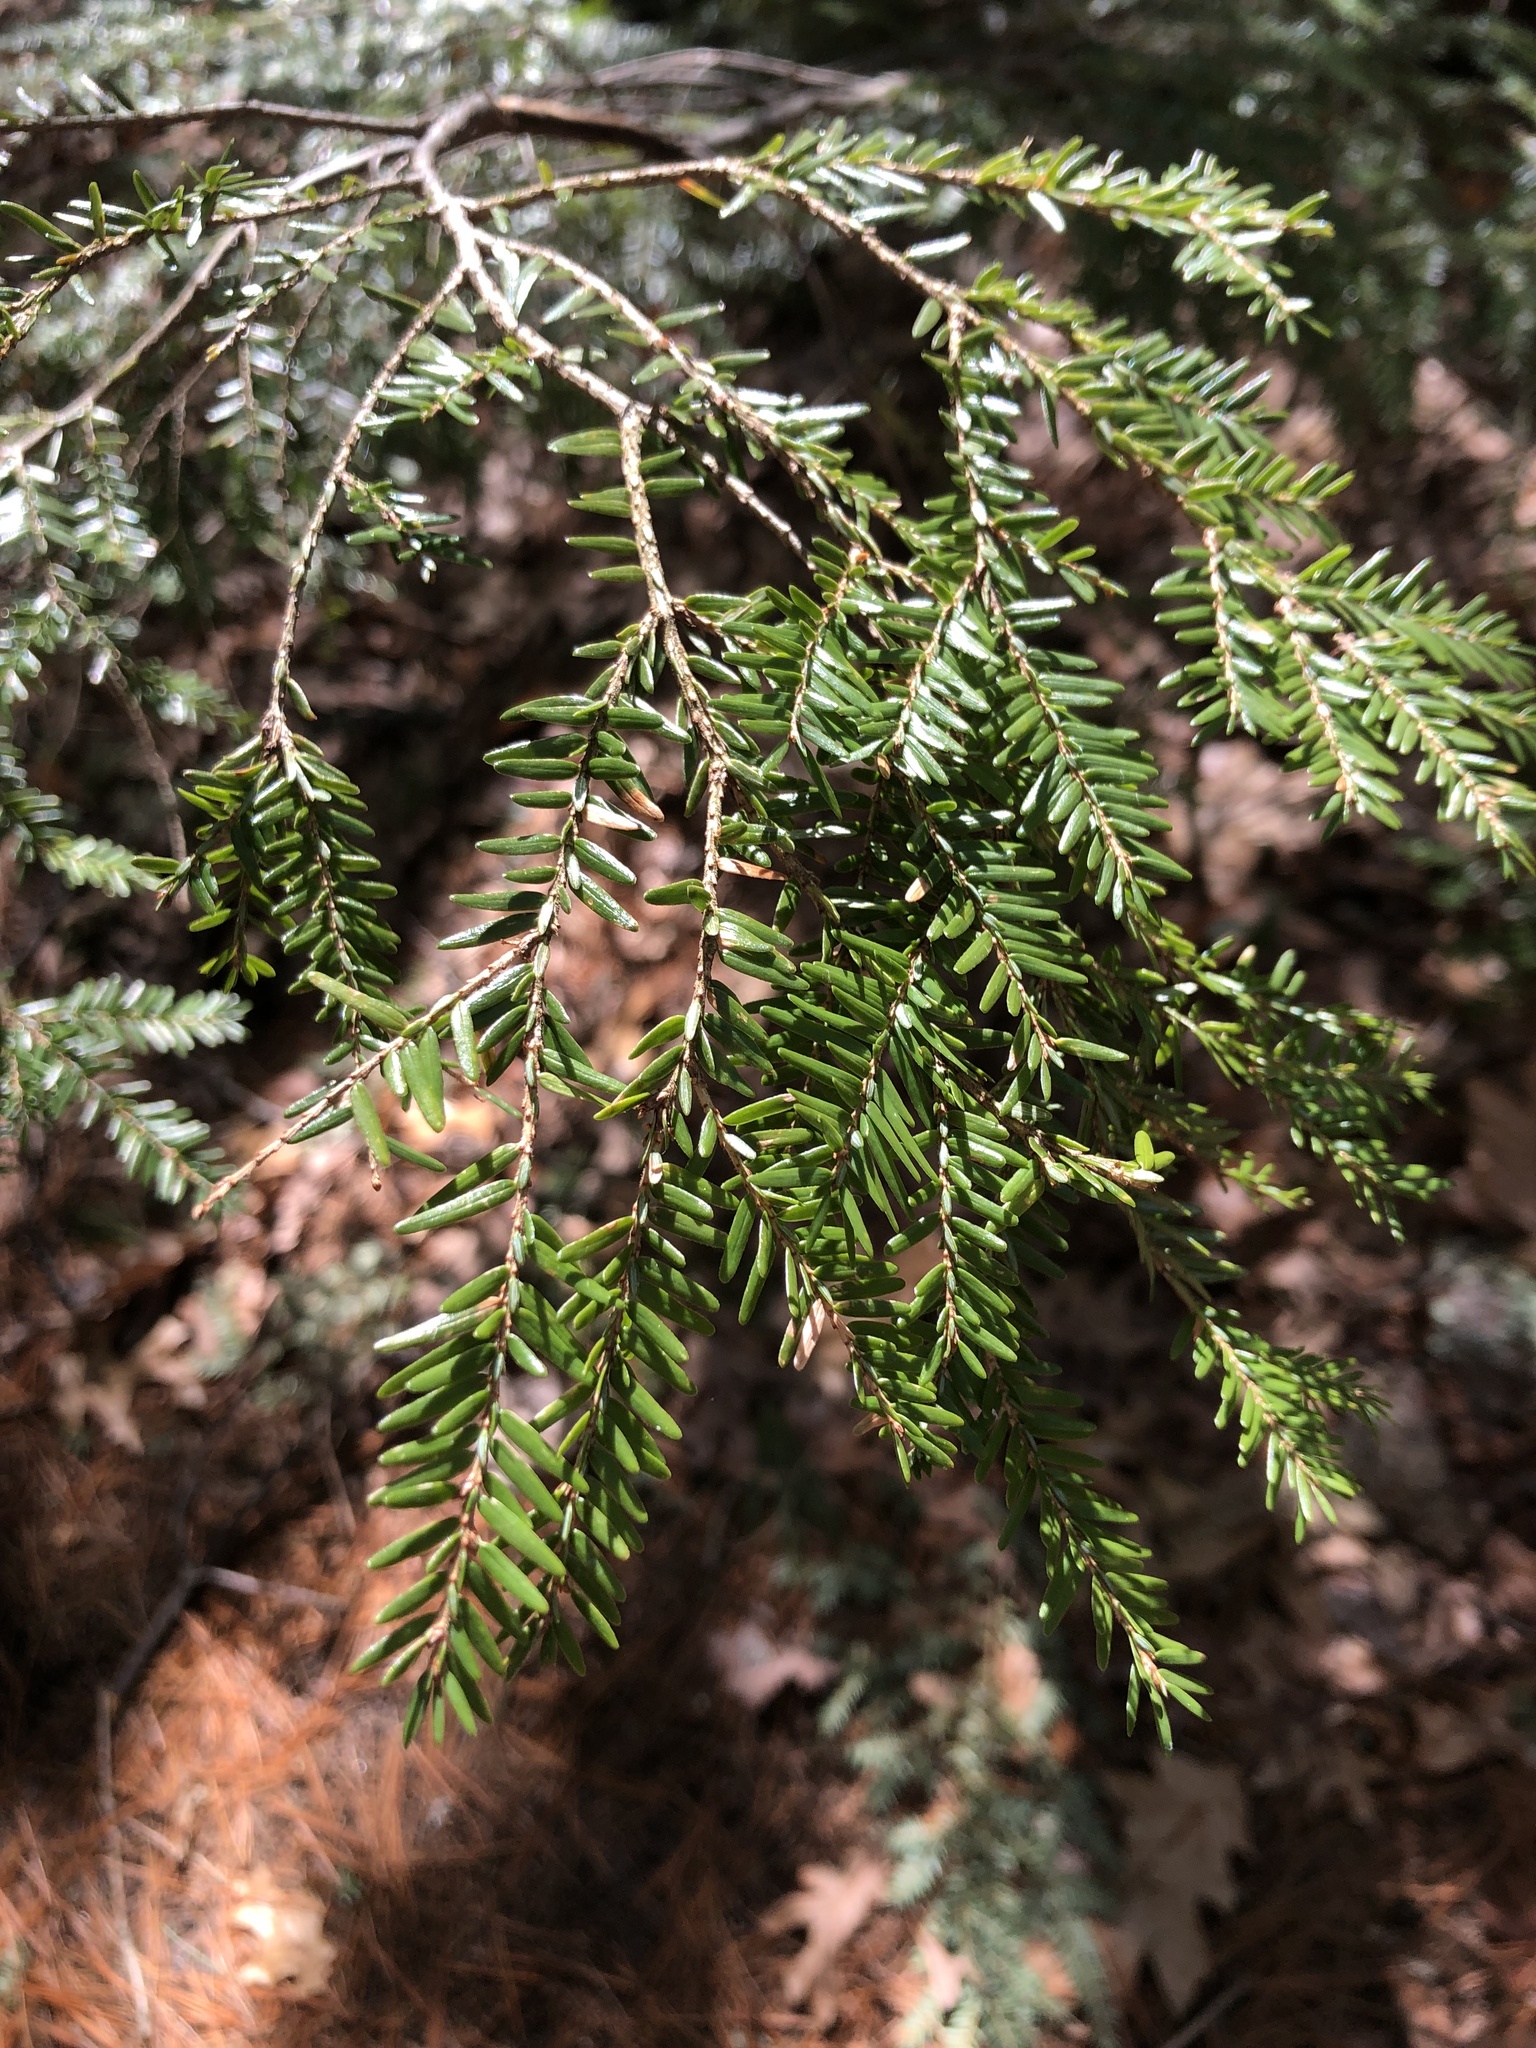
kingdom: Plantae
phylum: Tracheophyta
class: Pinopsida
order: Pinales
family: Pinaceae
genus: Tsuga
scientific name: Tsuga canadensis
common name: Eastern hemlock
